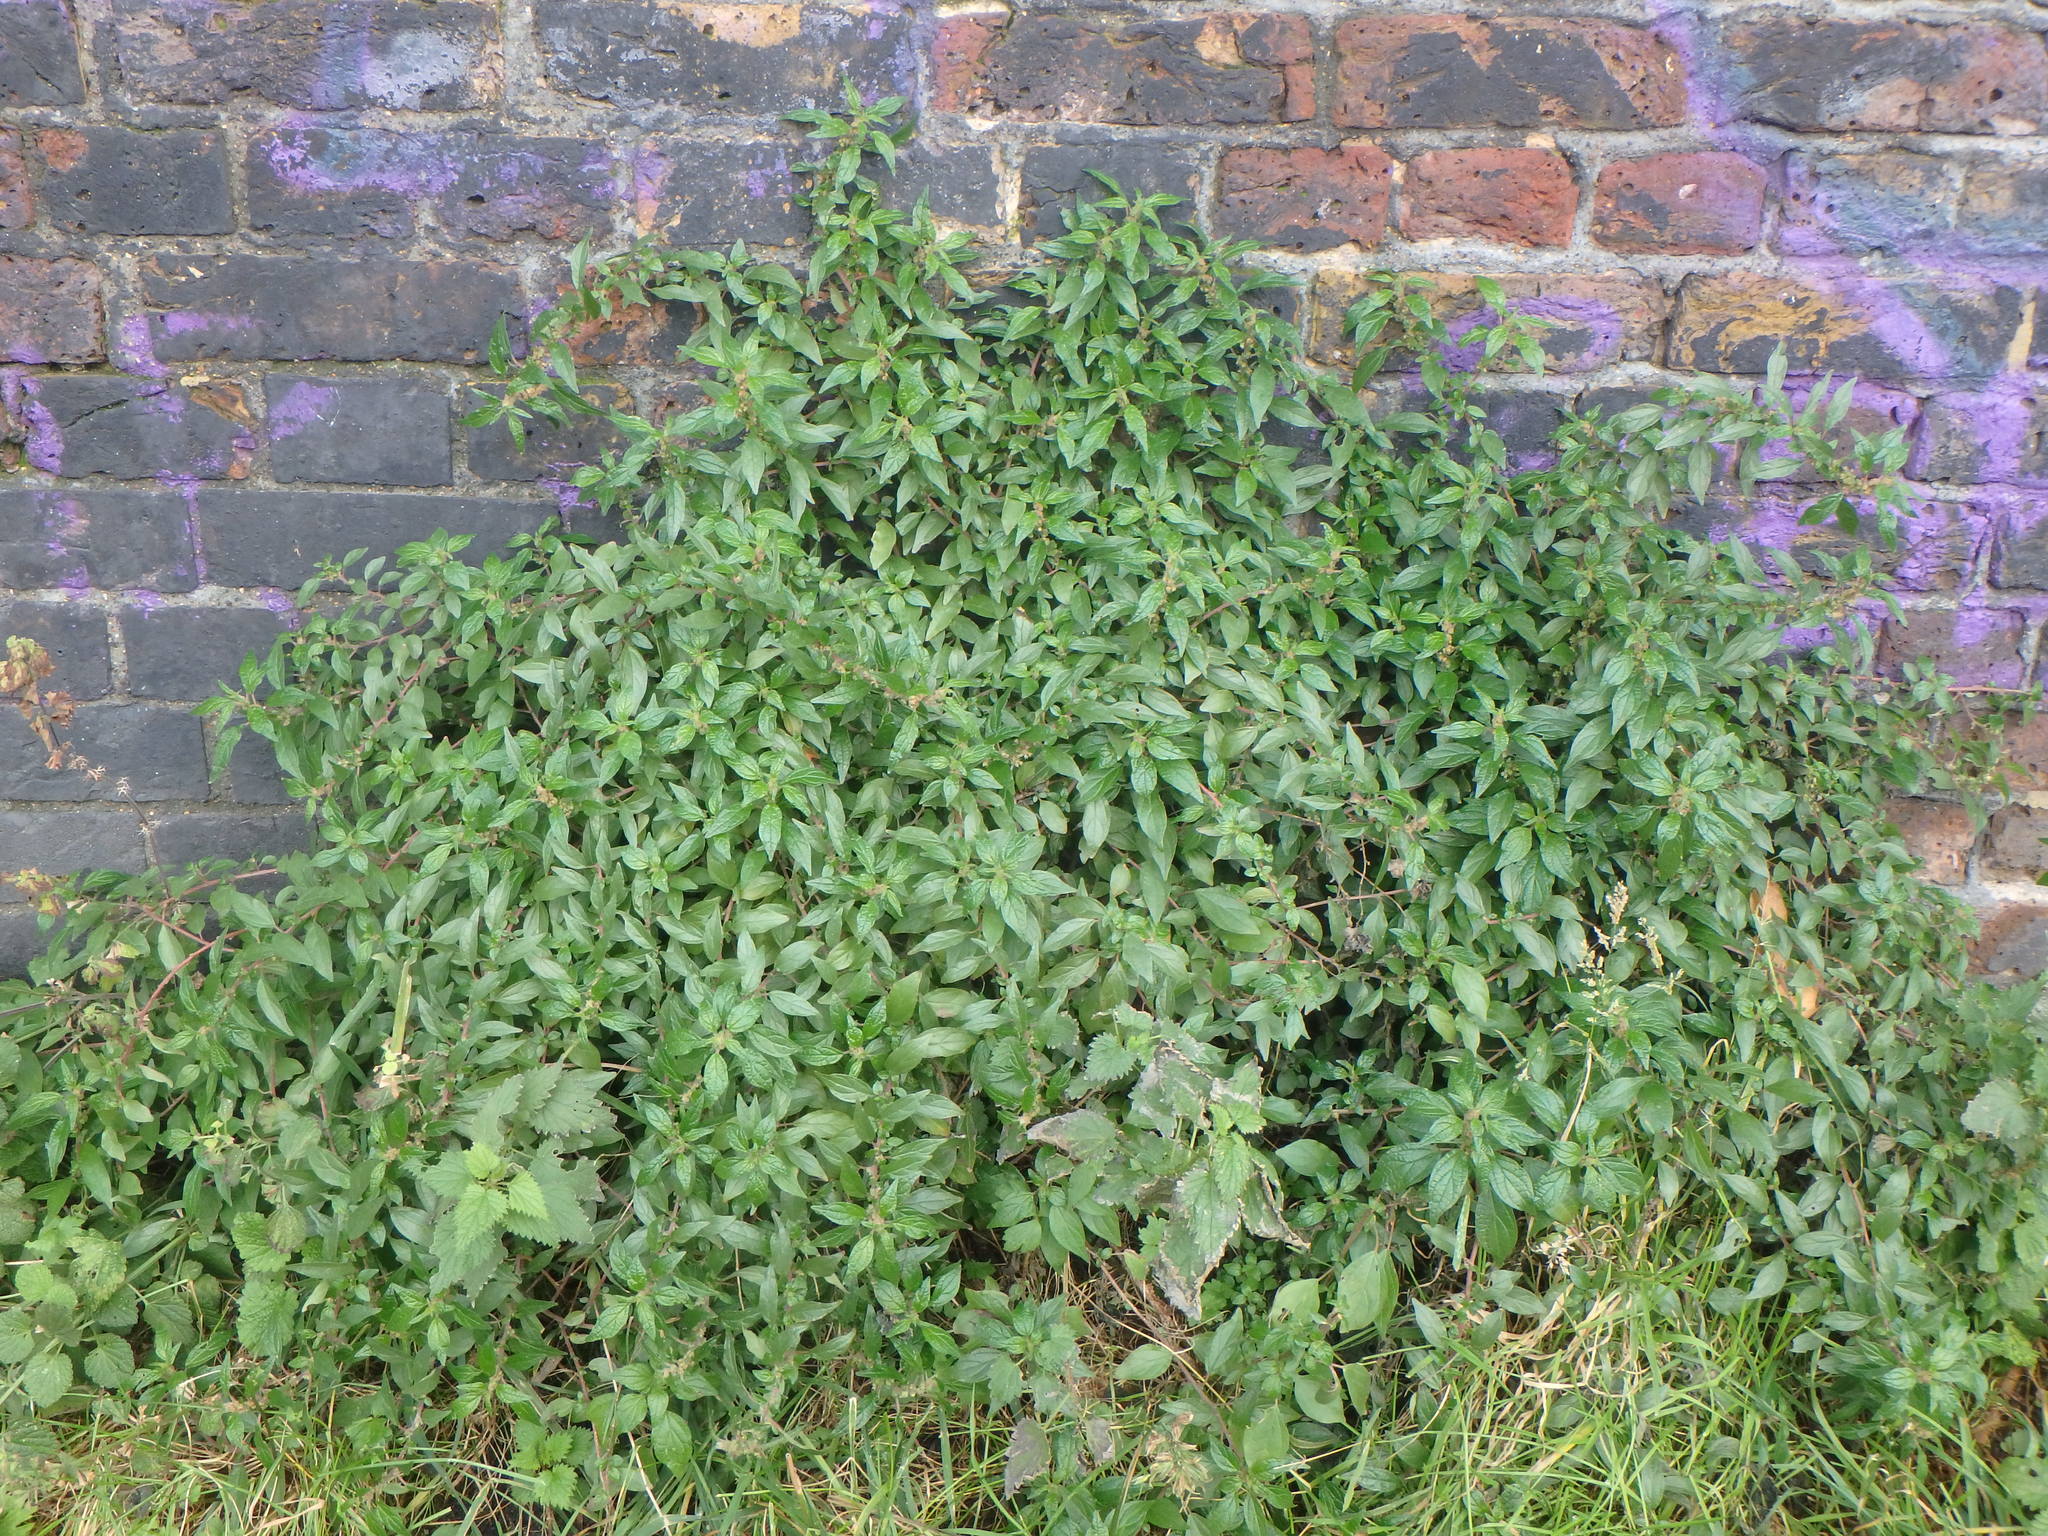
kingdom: Plantae
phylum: Tracheophyta
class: Magnoliopsida
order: Rosales
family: Urticaceae
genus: Parietaria
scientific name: Parietaria judaica
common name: Pellitory-of-the-wall
